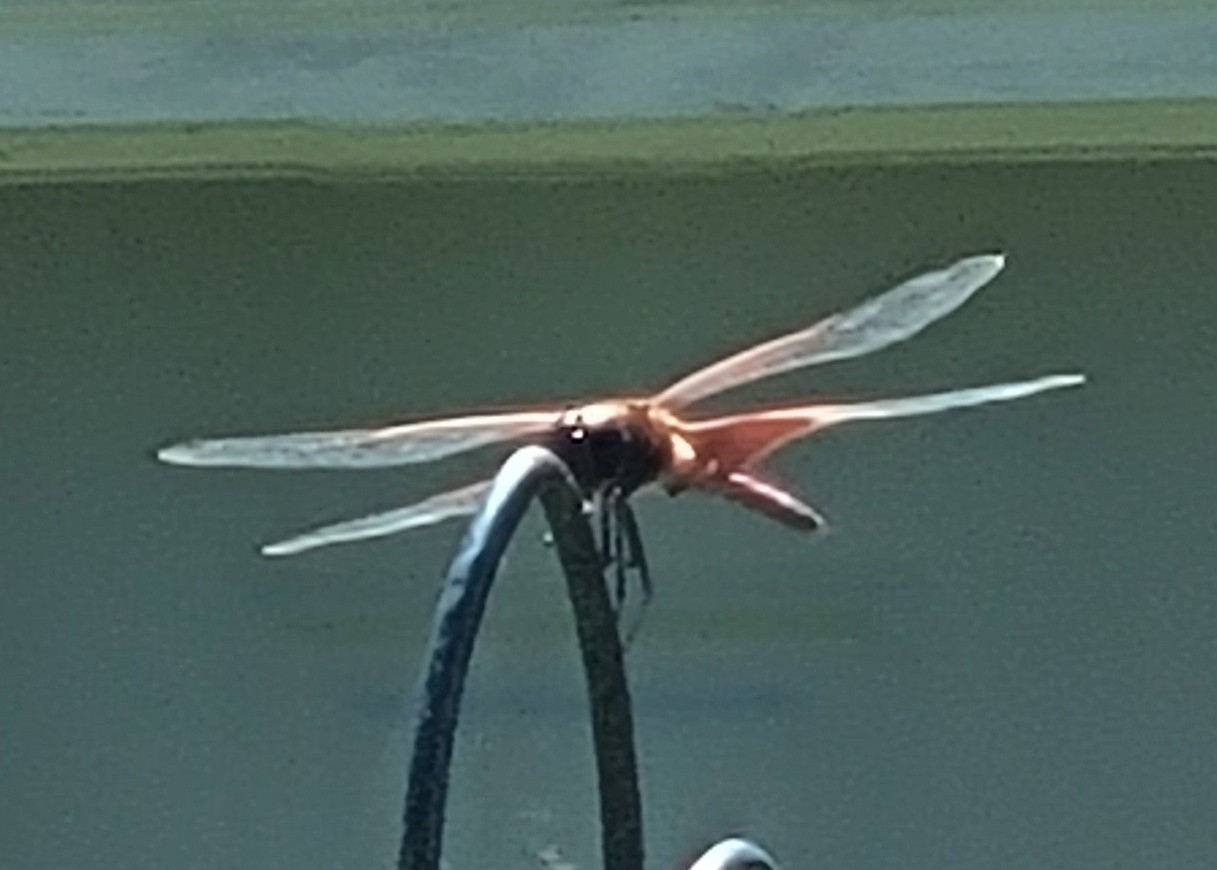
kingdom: Animalia
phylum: Arthropoda
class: Insecta
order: Odonata
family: Libellulidae
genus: Tramea
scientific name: Tramea carolina
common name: Carolina saddlebags
